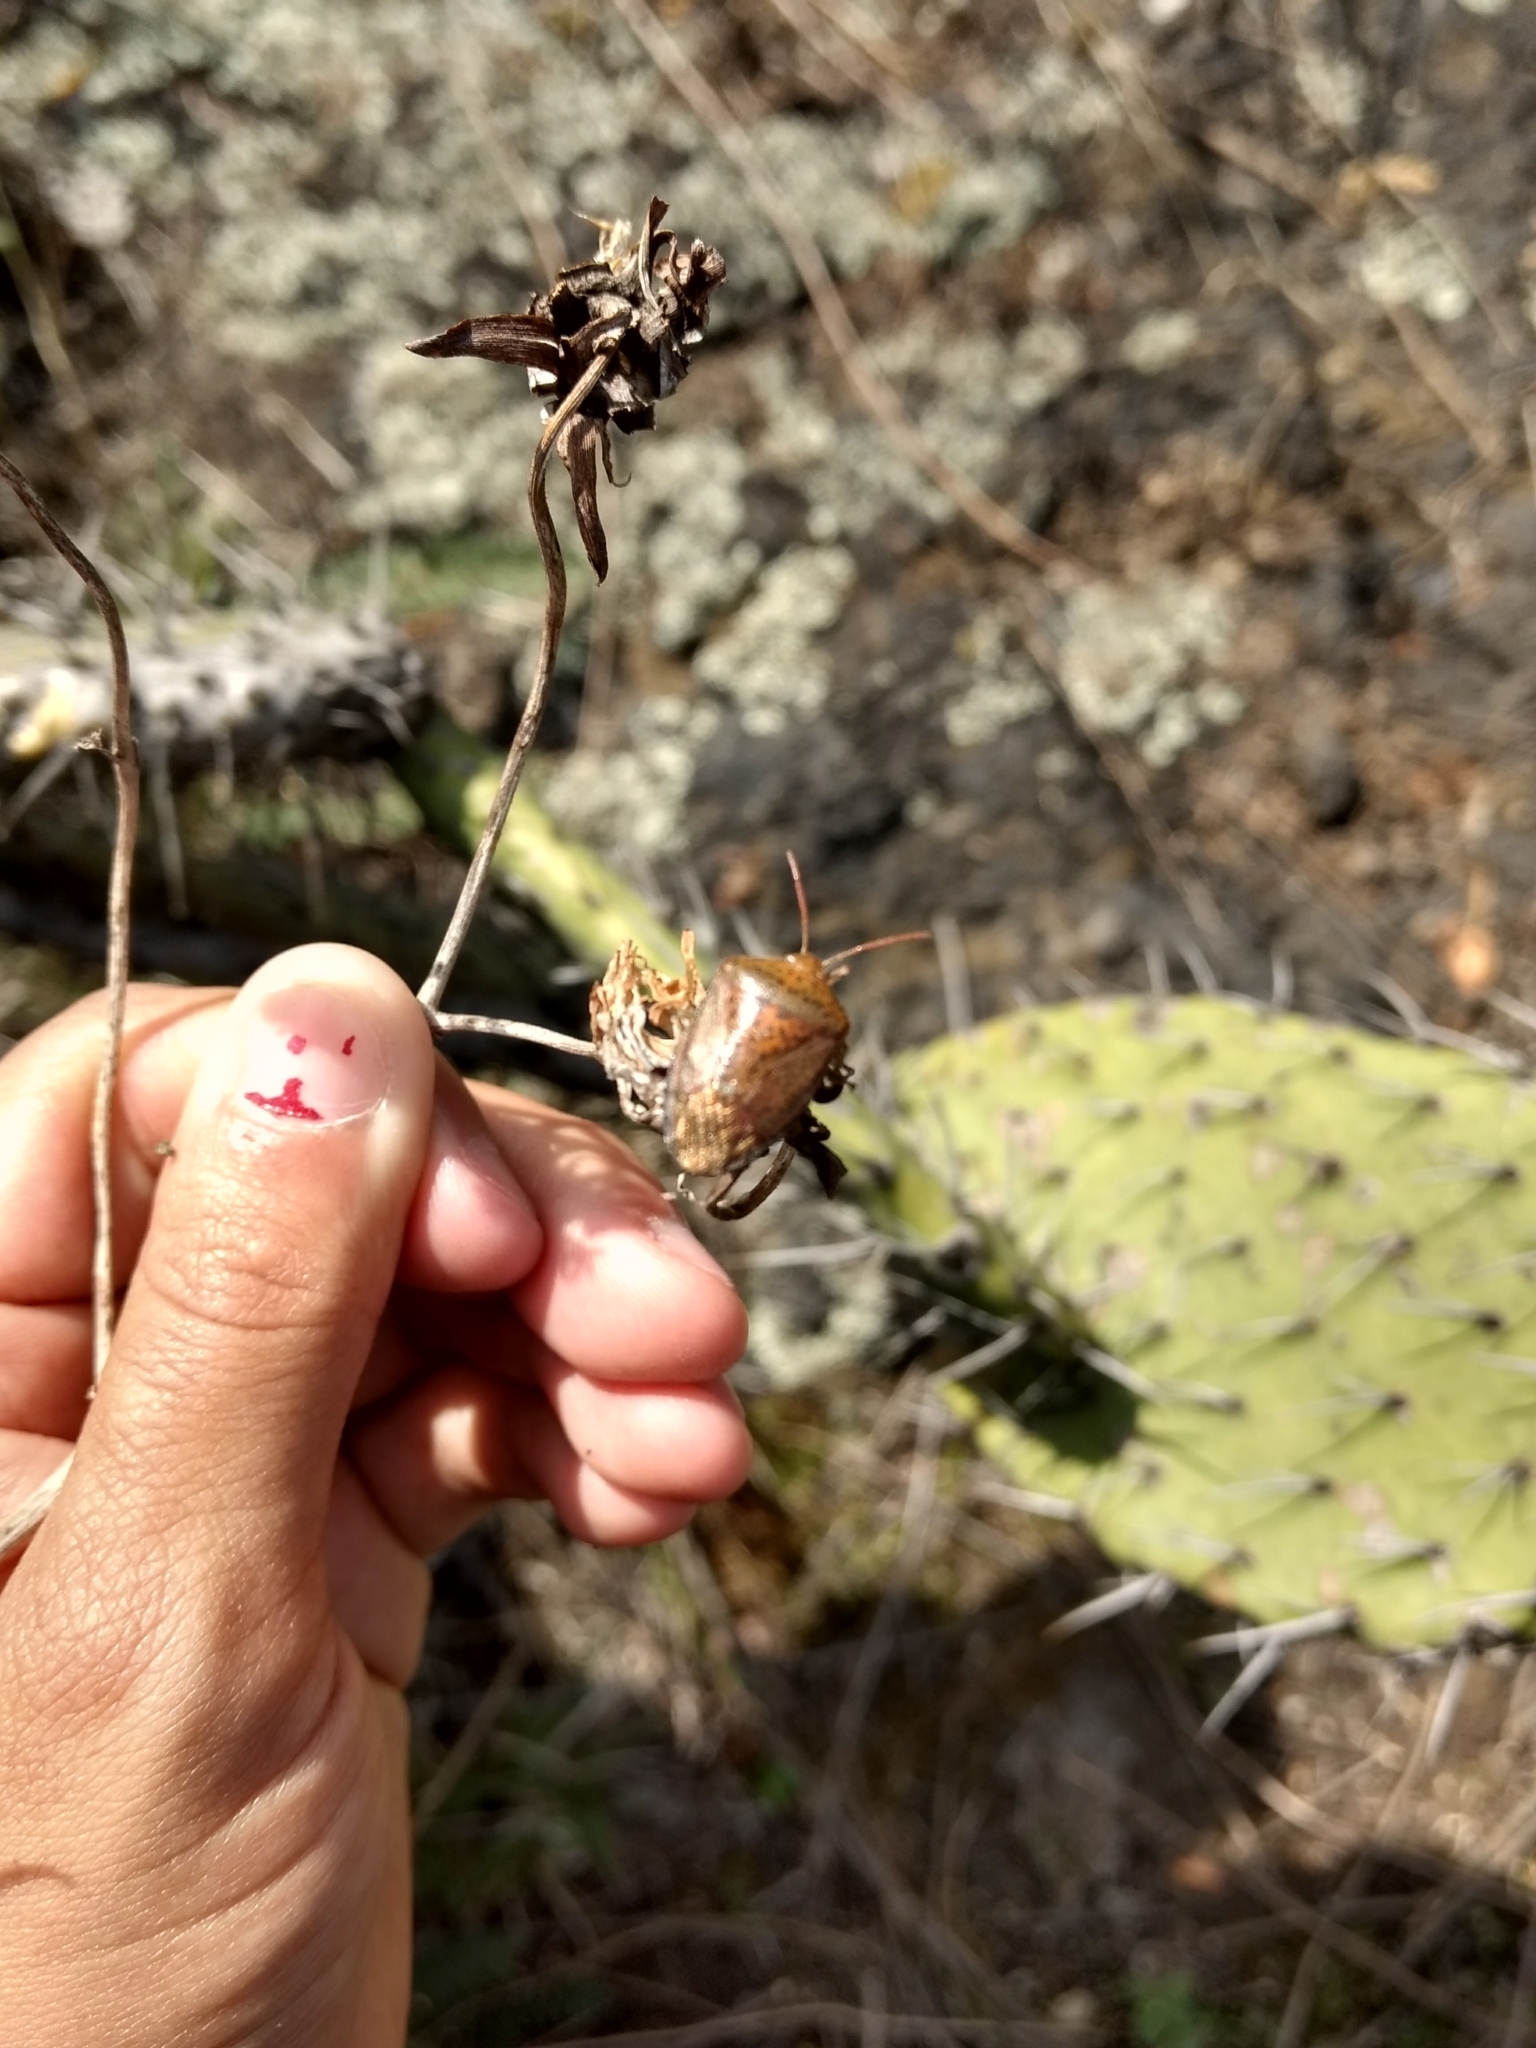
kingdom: Animalia
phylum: Arthropoda
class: Insecta
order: Hemiptera
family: Pentatomidae
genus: Ascra
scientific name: Ascra
